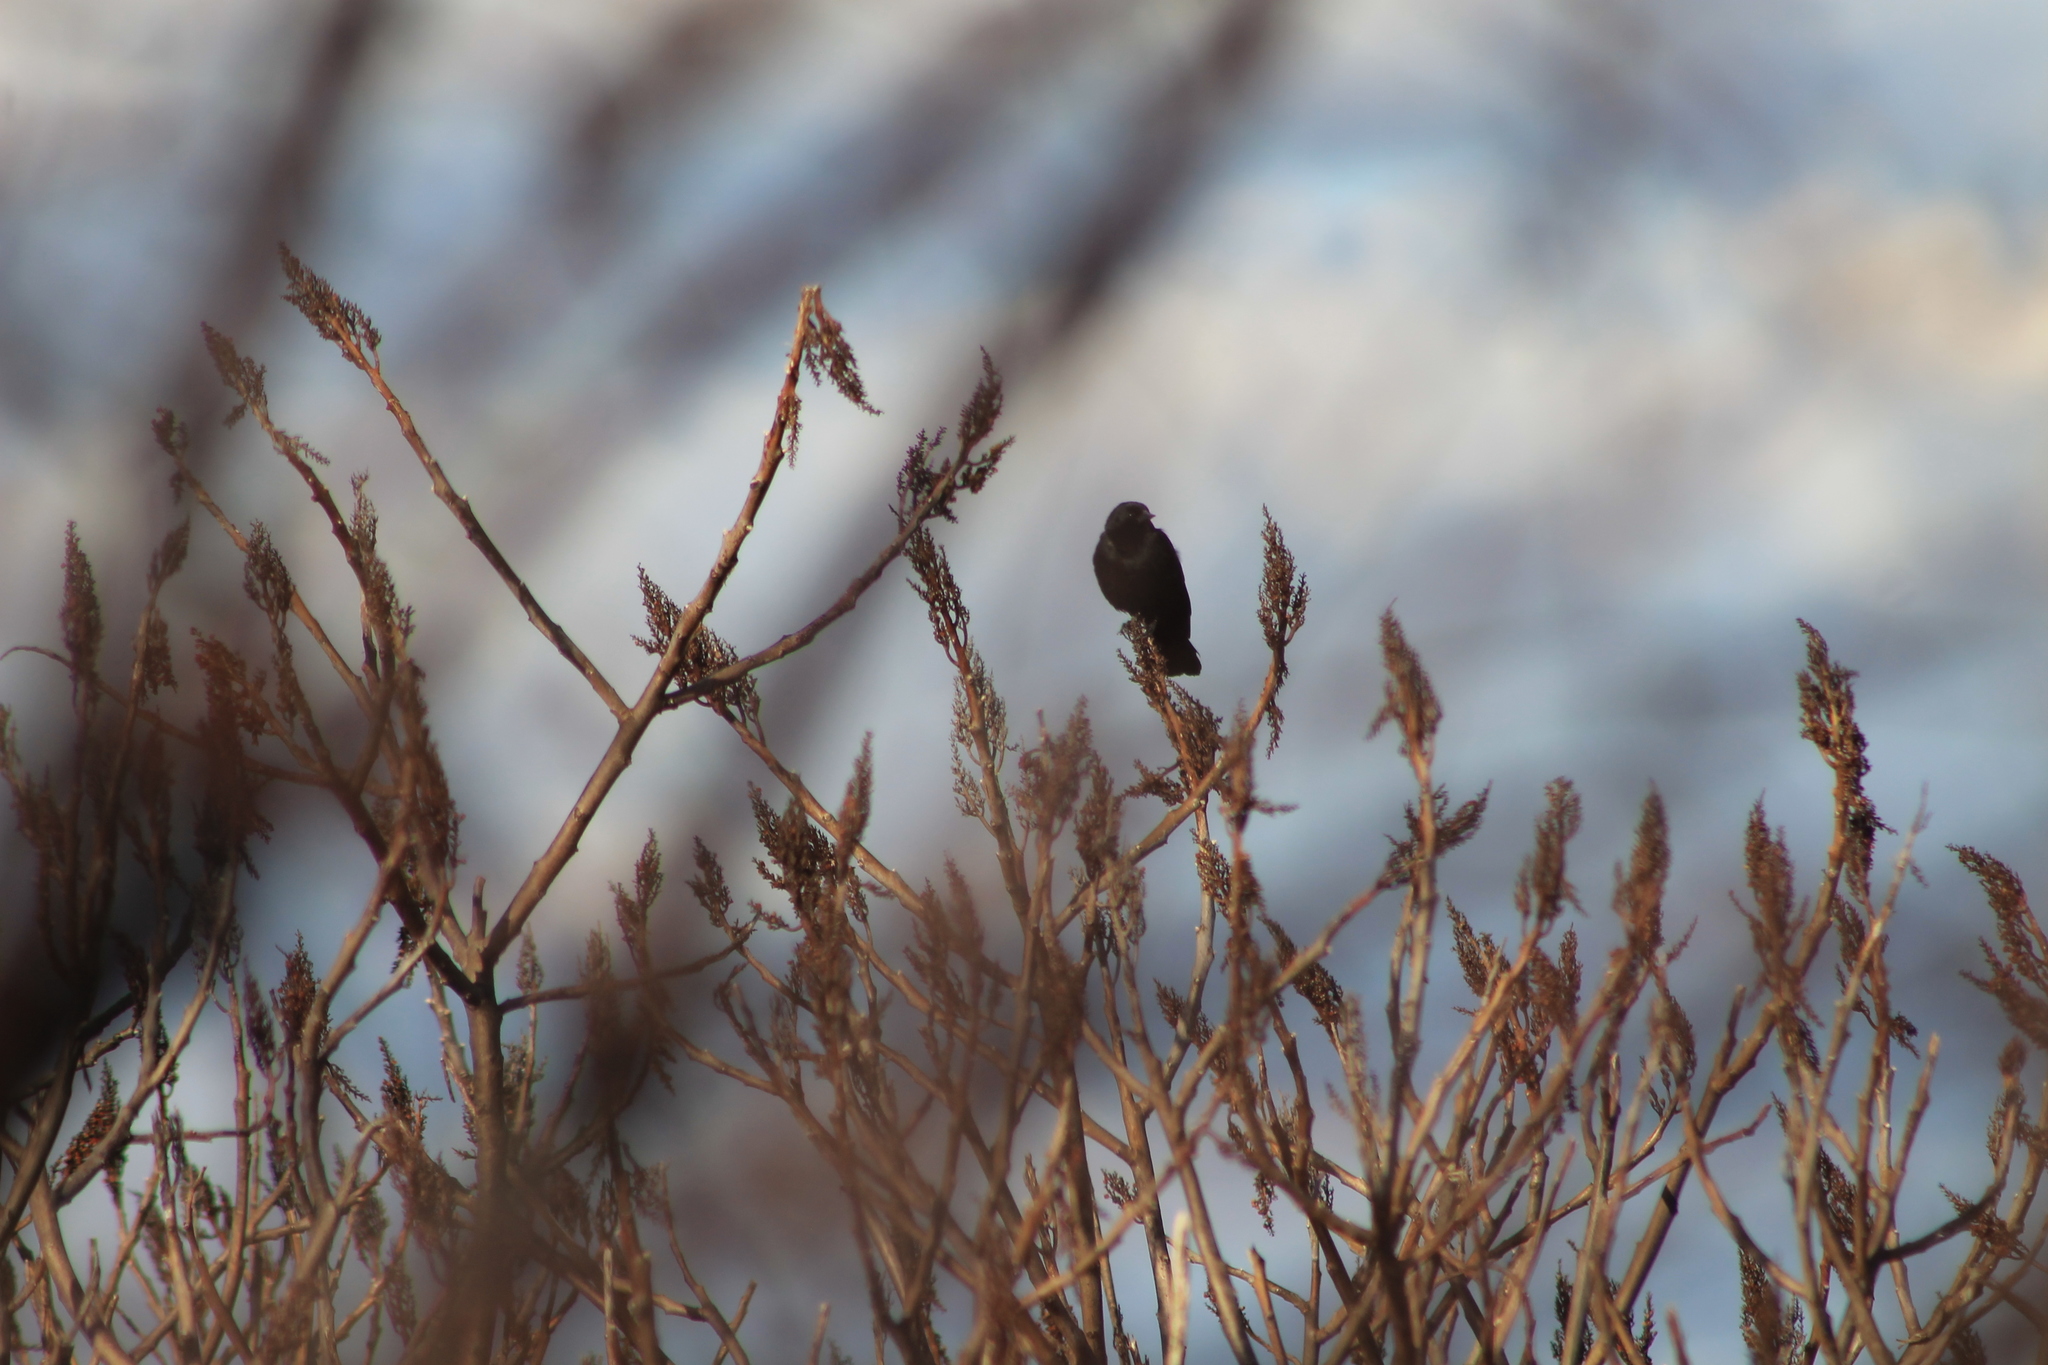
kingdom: Animalia
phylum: Chordata
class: Aves
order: Passeriformes
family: Icteridae
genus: Agelaius
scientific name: Agelaius phoeniceus
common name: Red-winged blackbird
